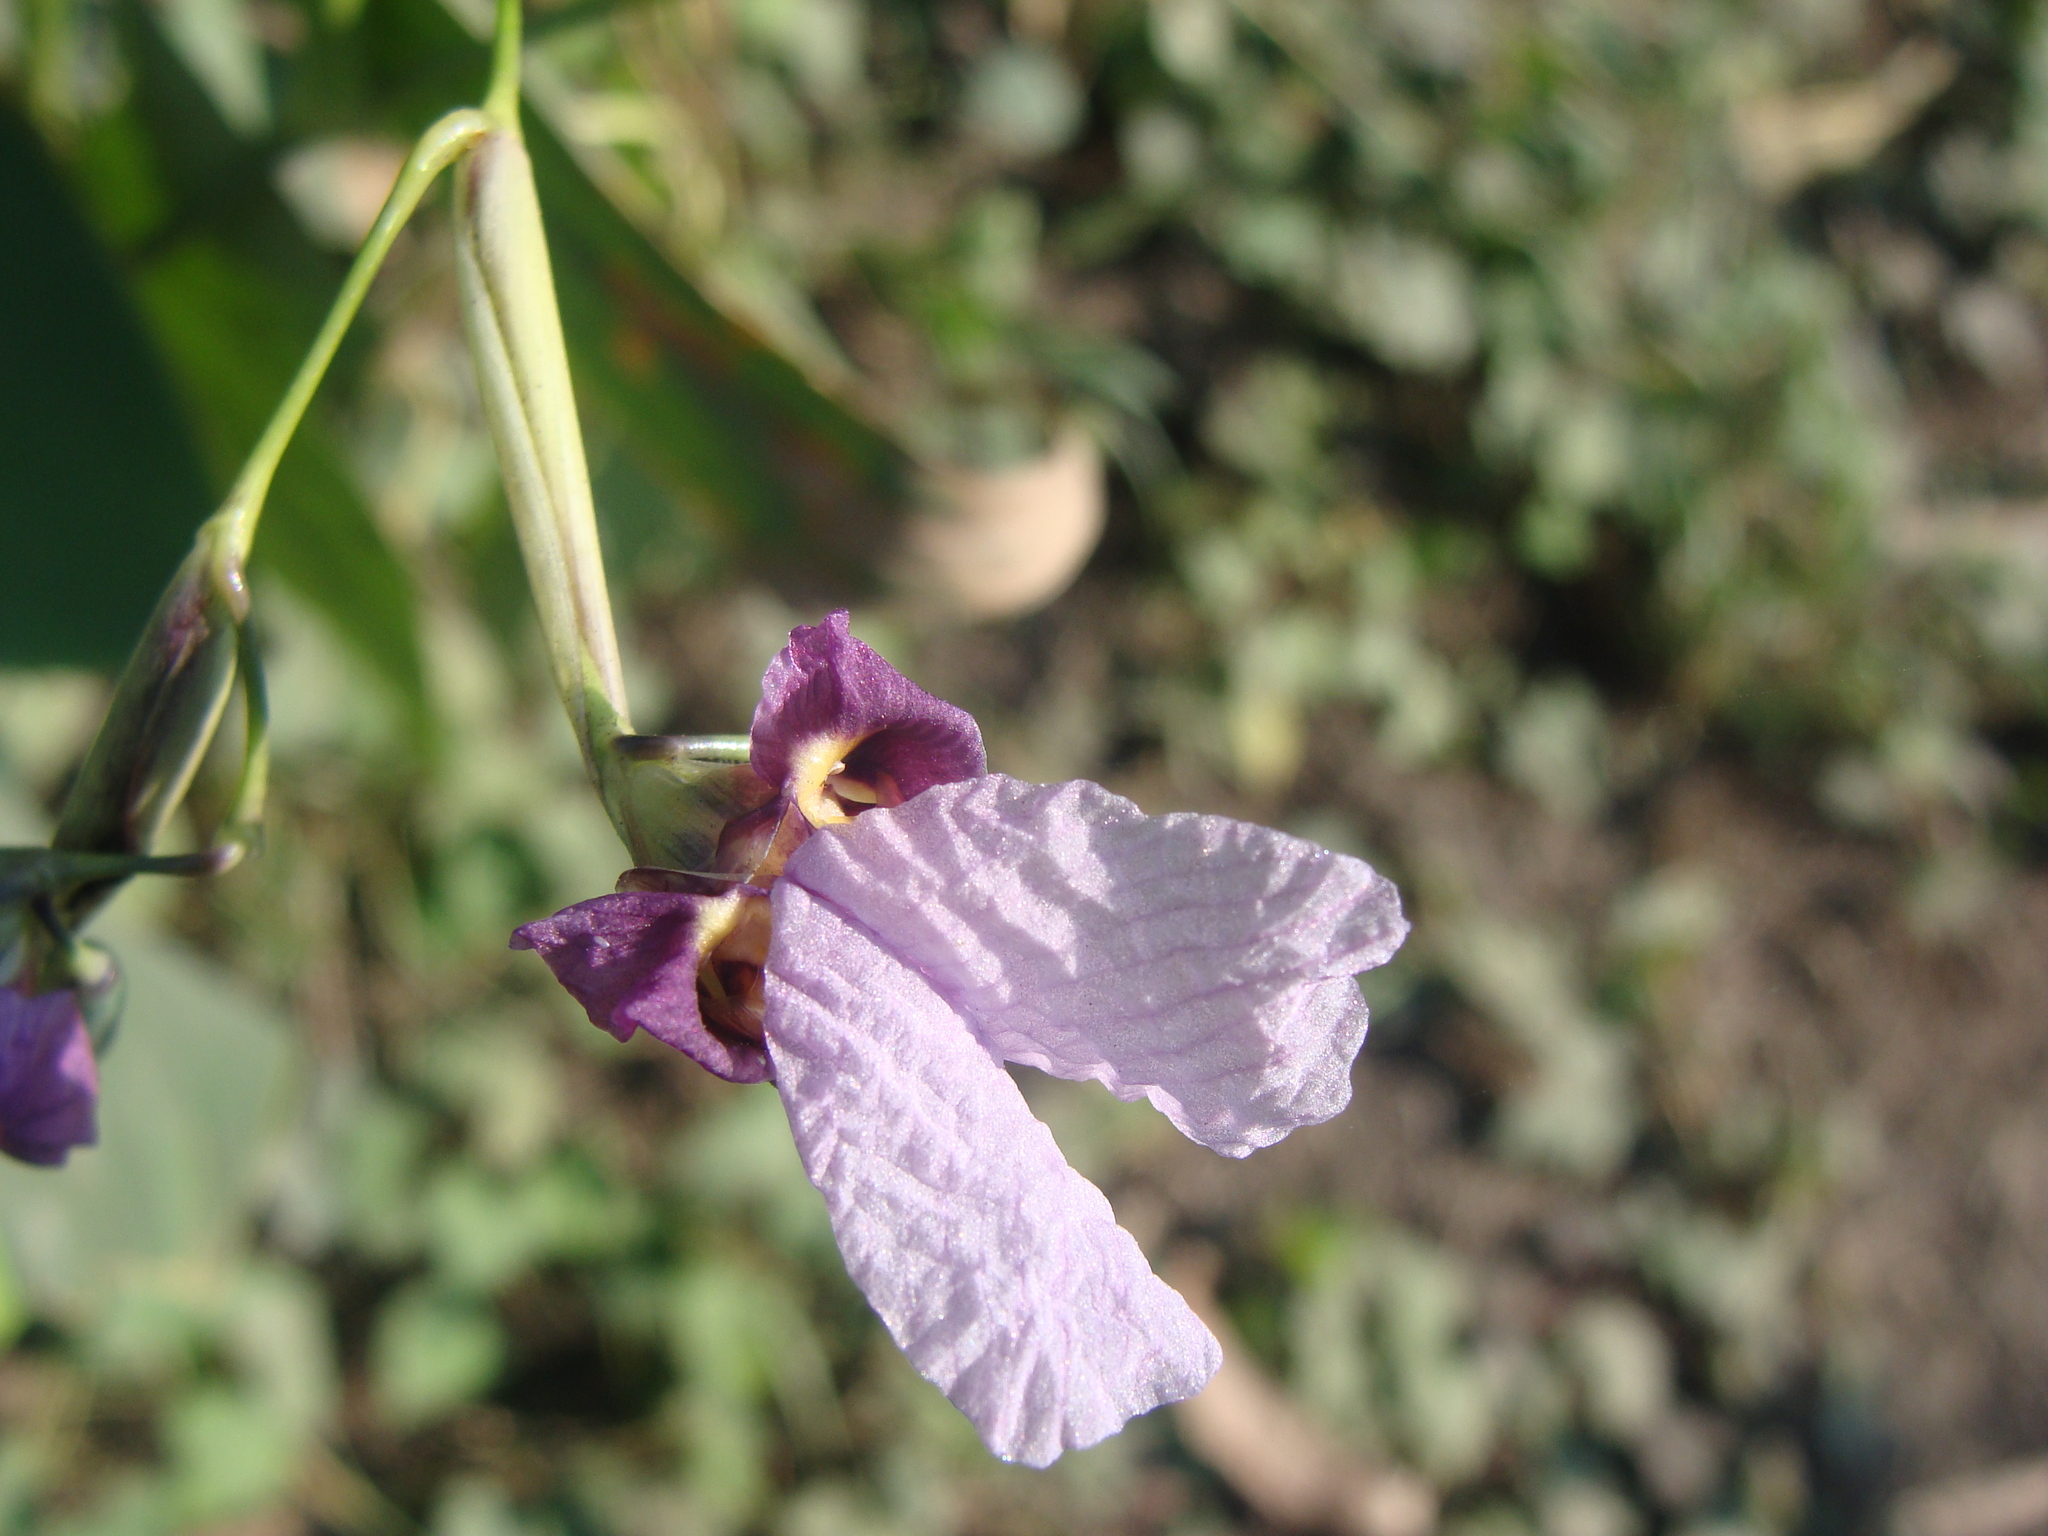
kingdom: Plantae
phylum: Tracheophyta
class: Liliopsida
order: Zingiberales
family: Marantaceae
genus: Thalia
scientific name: Thalia geniculata
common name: Arrowroot
